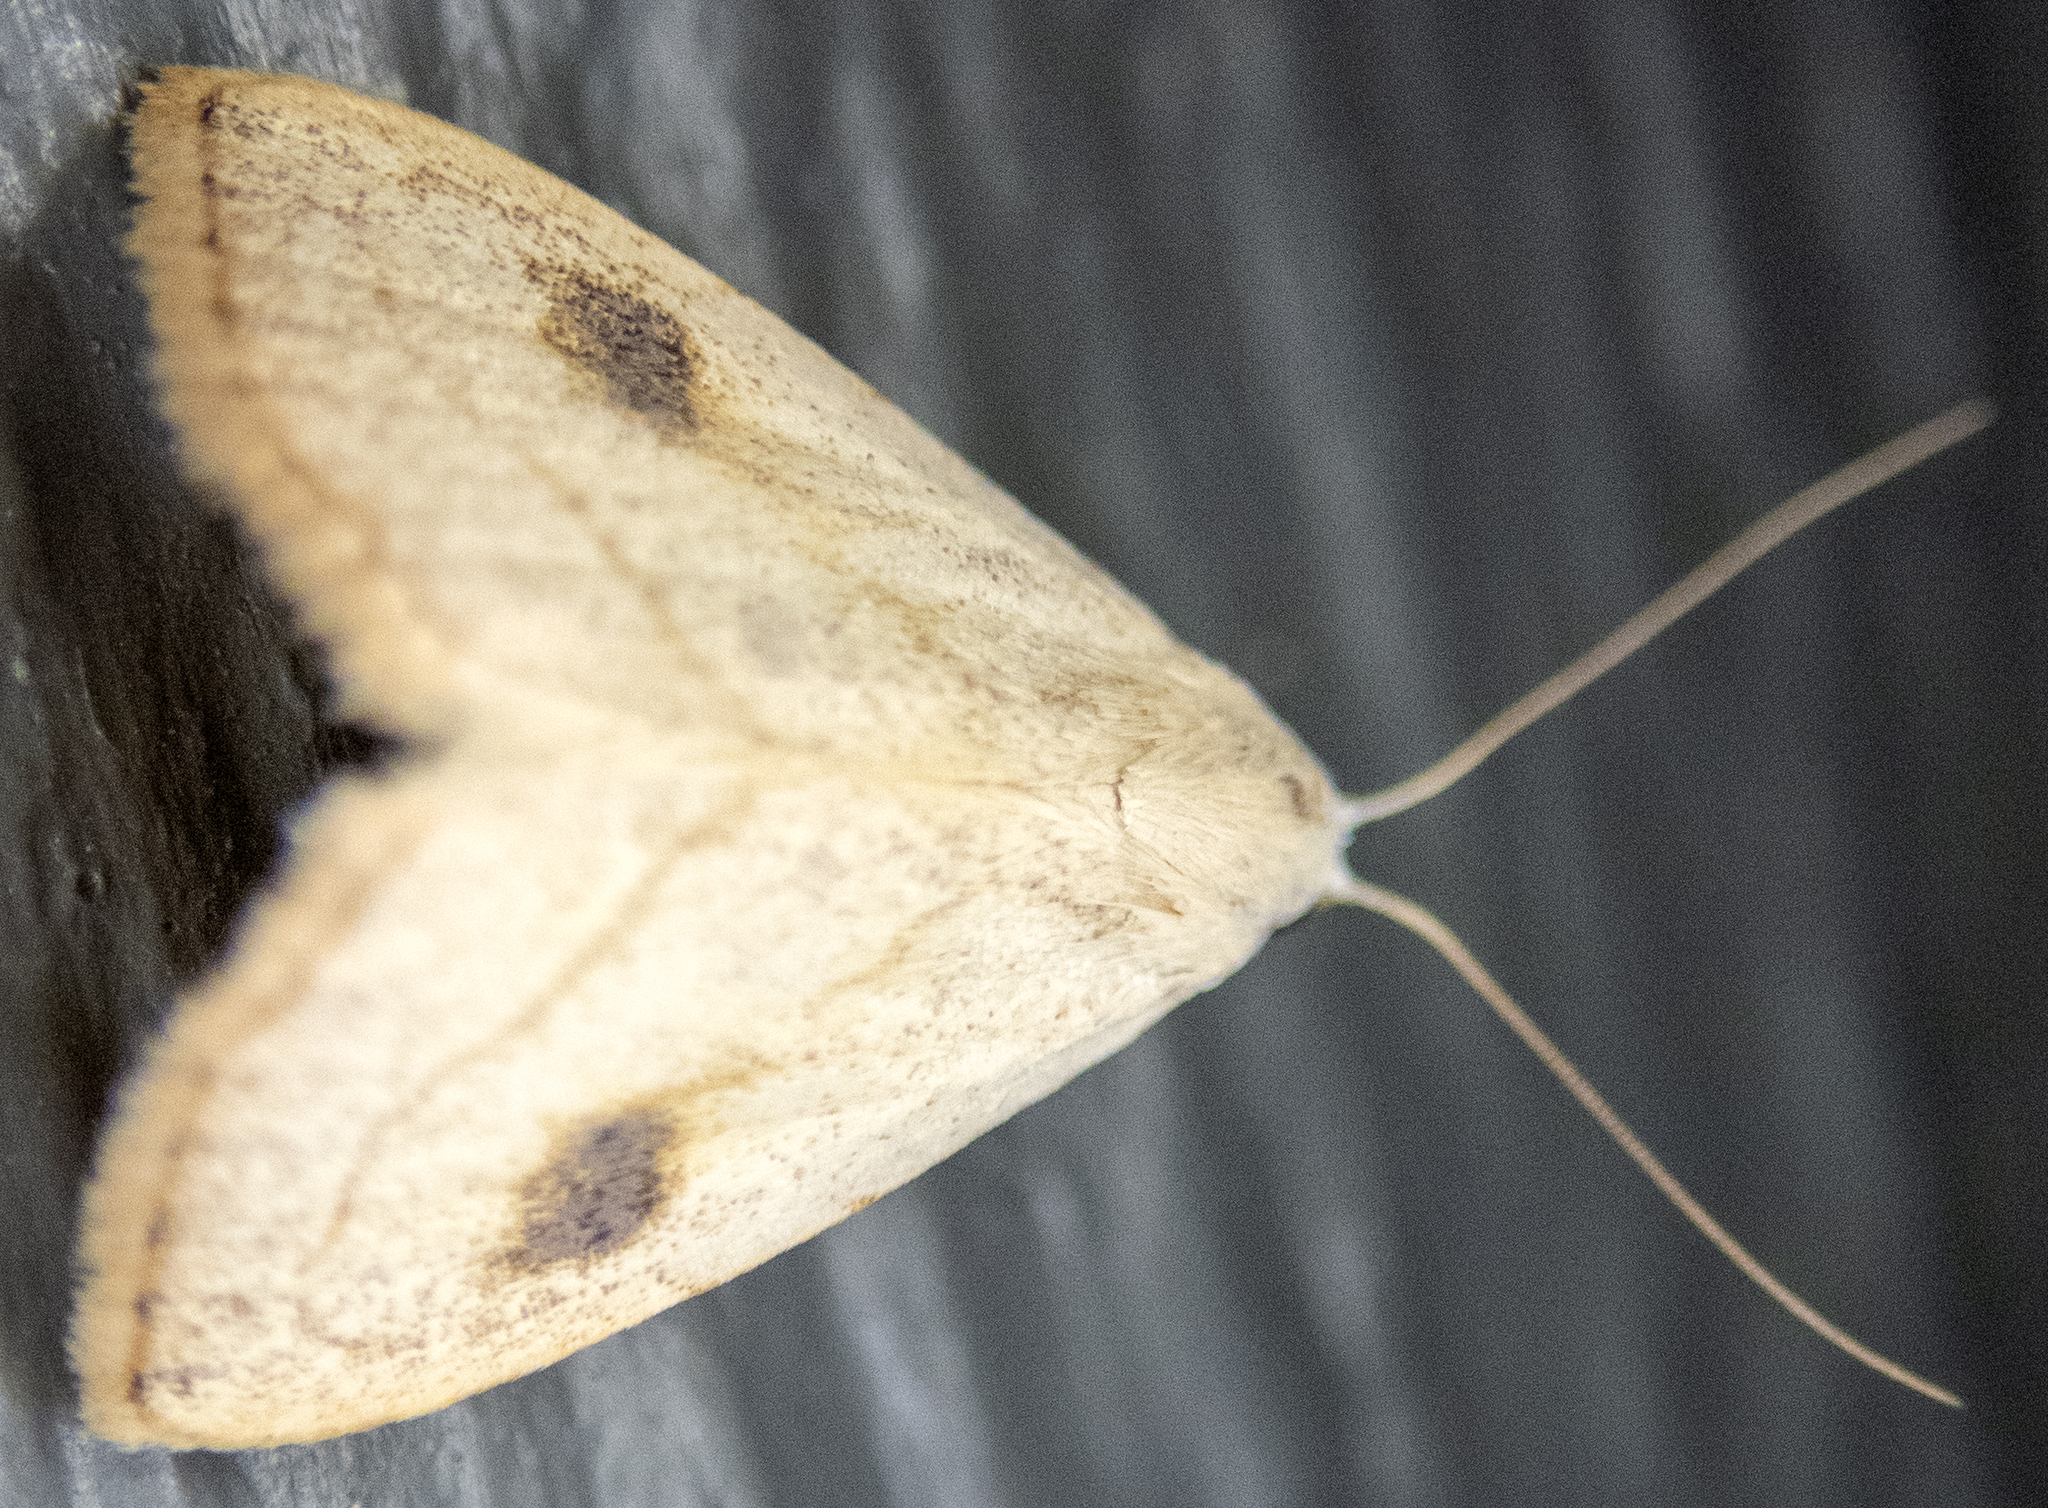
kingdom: Animalia
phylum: Arthropoda
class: Insecta
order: Lepidoptera
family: Erebidae
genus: Rivula
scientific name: Rivula propinqualis
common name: Spotted grass moth
